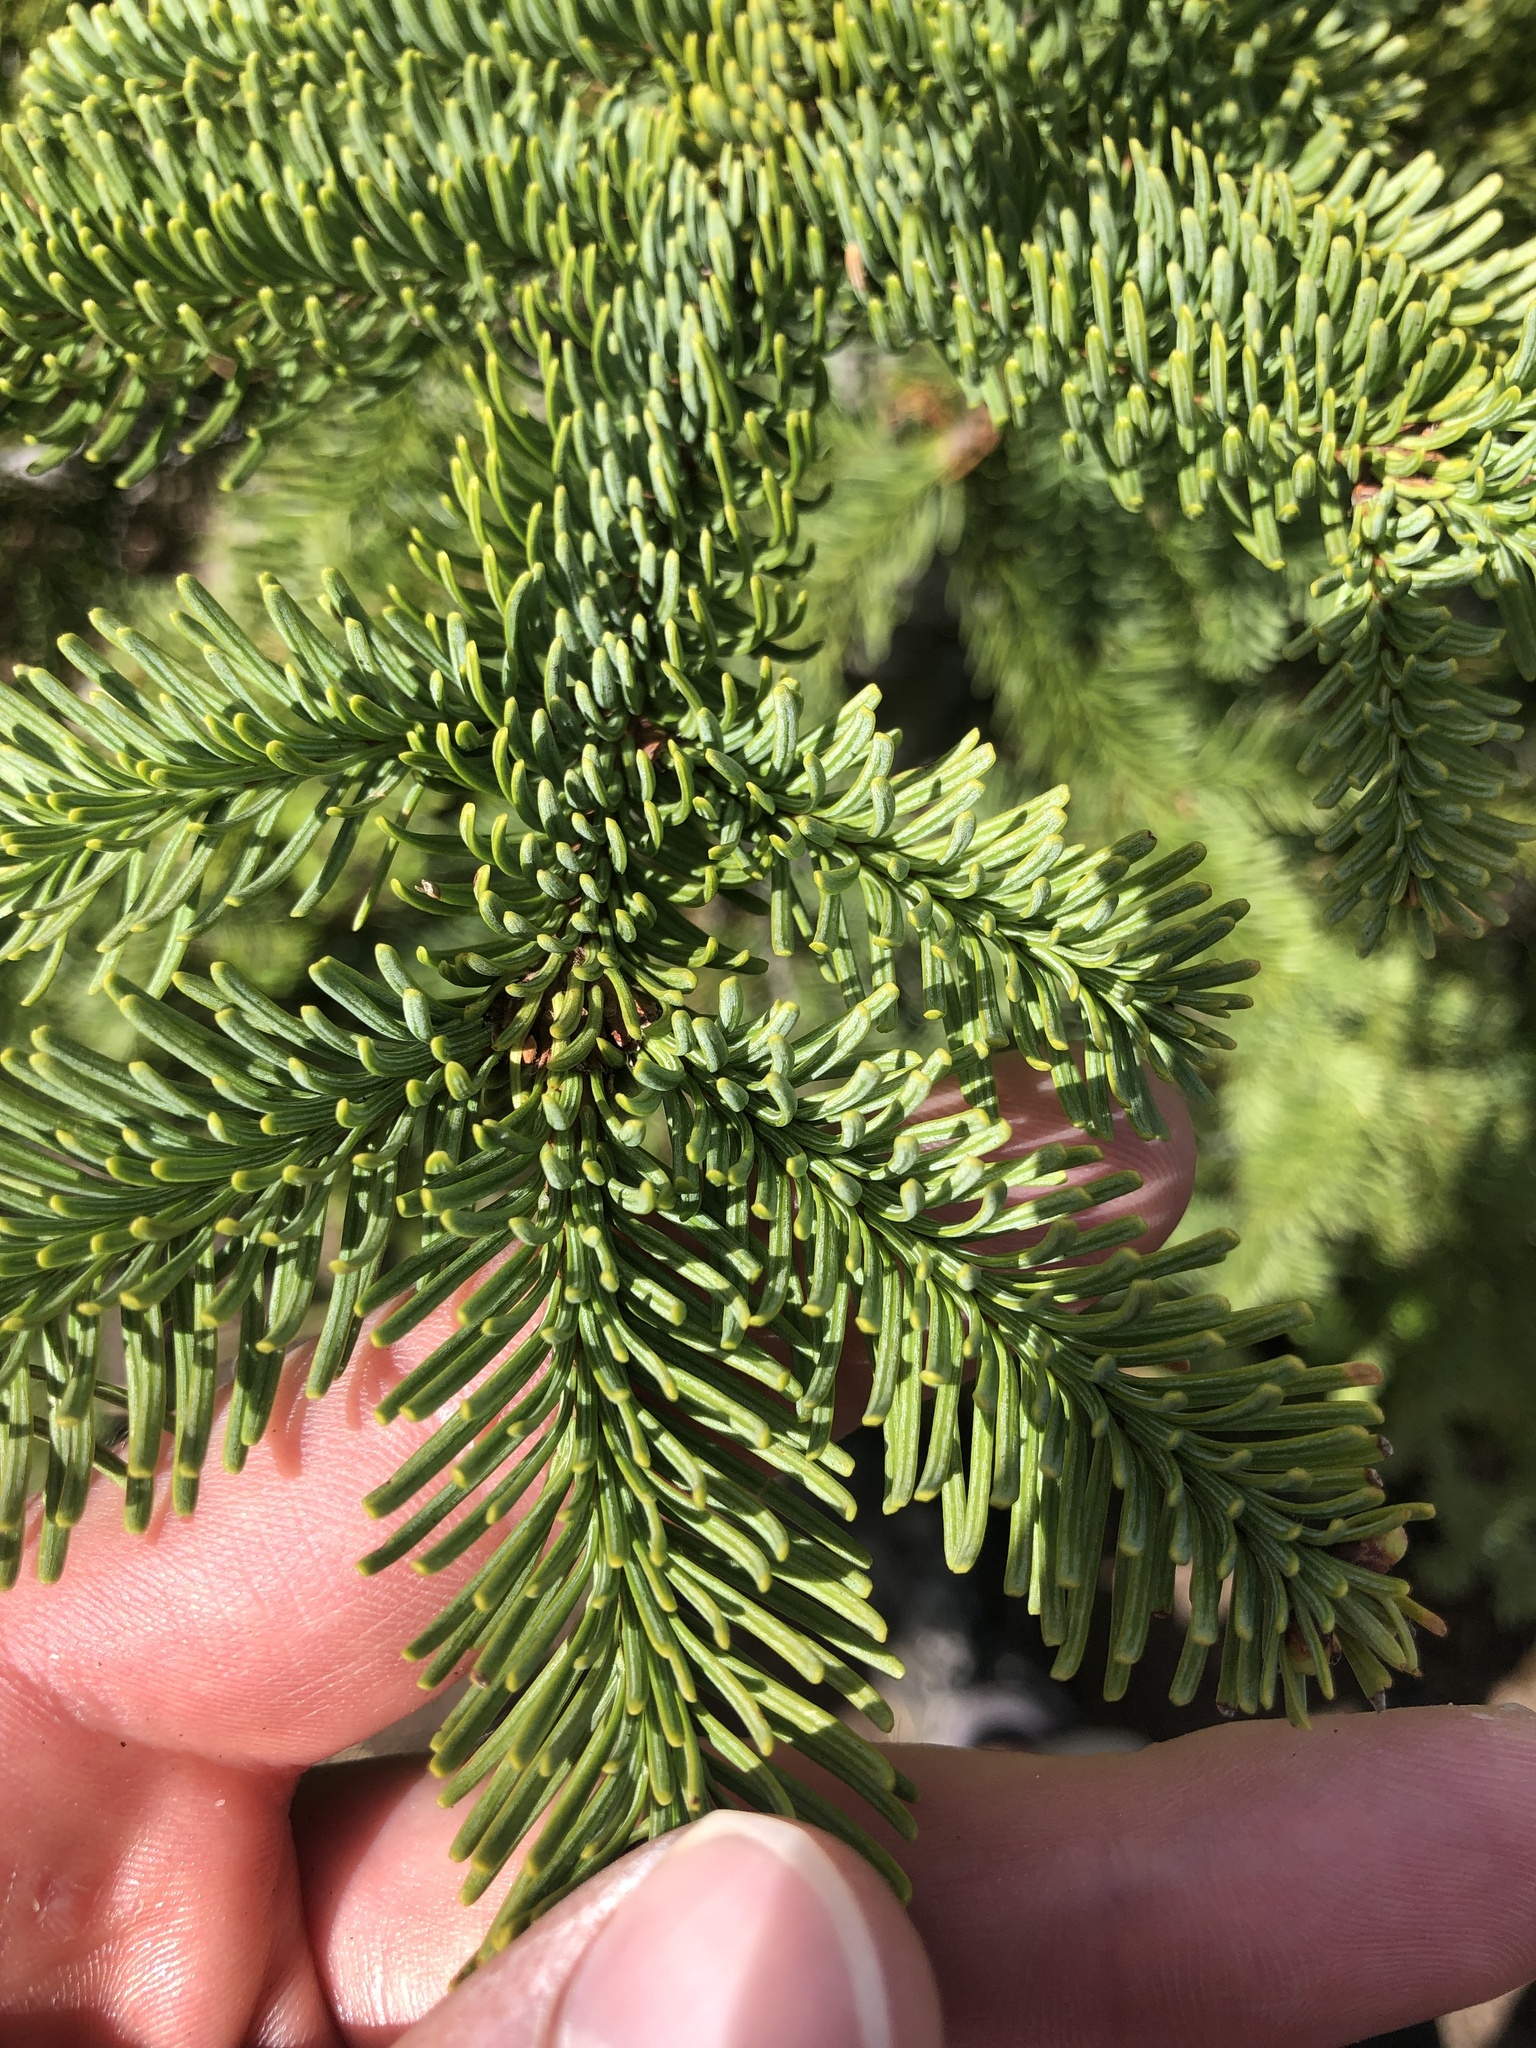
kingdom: Plantae
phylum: Tracheophyta
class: Pinopsida
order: Pinales
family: Pinaceae
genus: Abies
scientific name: Abies procera
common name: Noble fir
